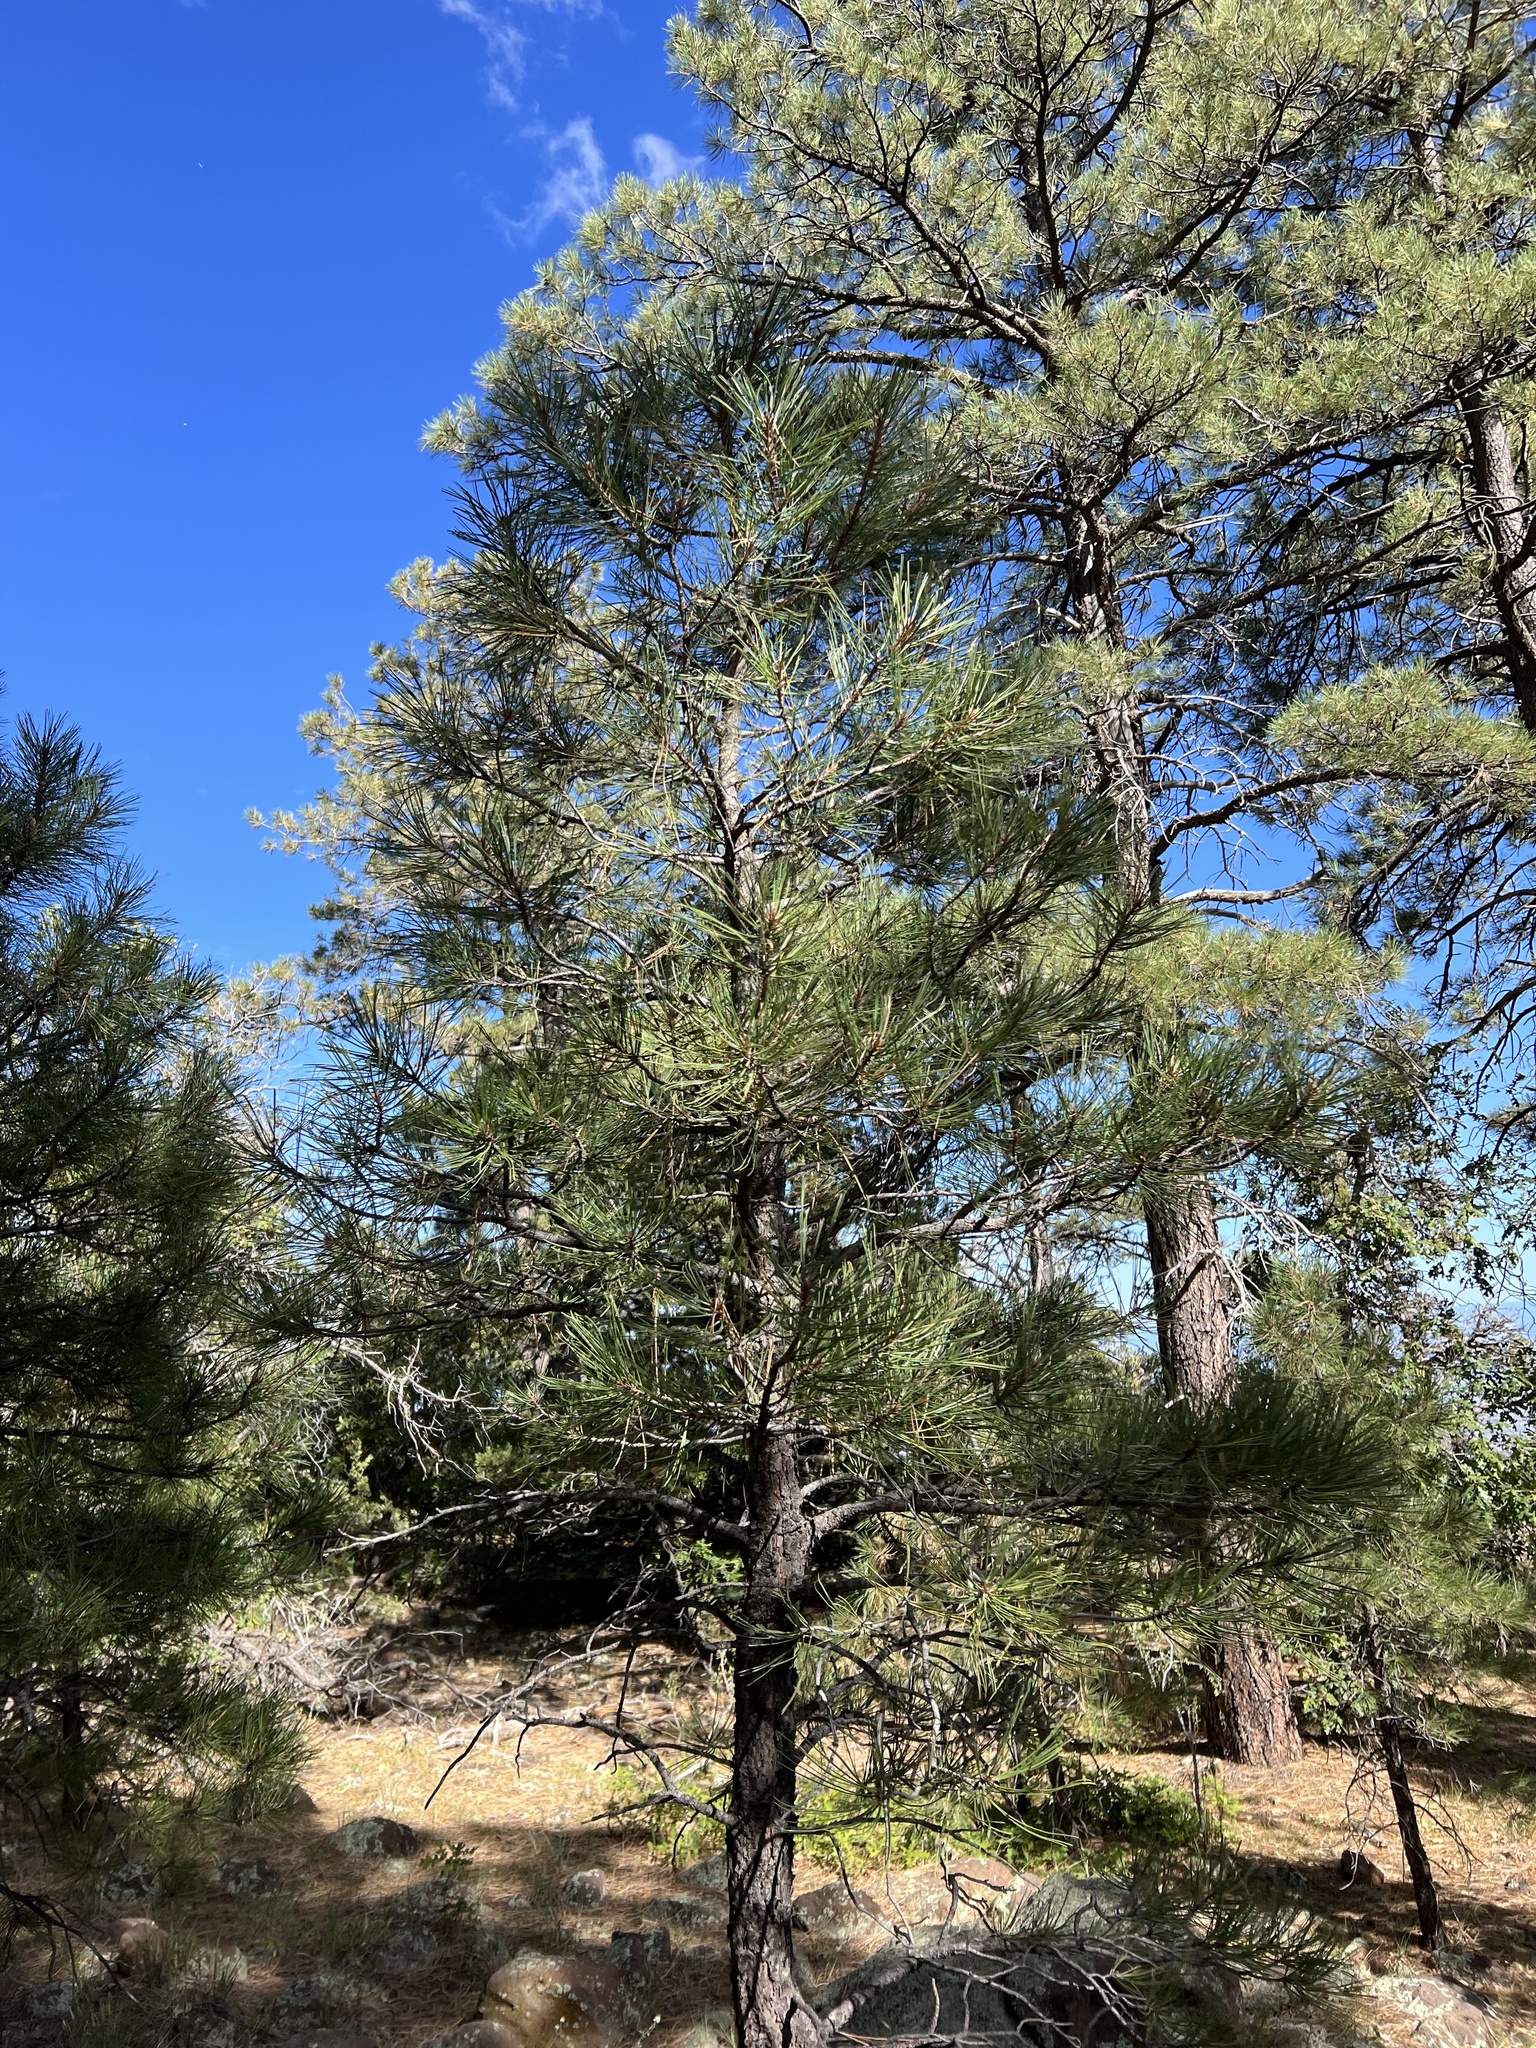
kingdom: Plantae
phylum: Tracheophyta
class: Pinopsida
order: Pinales
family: Pinaceae
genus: Pinus
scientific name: Pinus ponderosa
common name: Western yellow-pine
